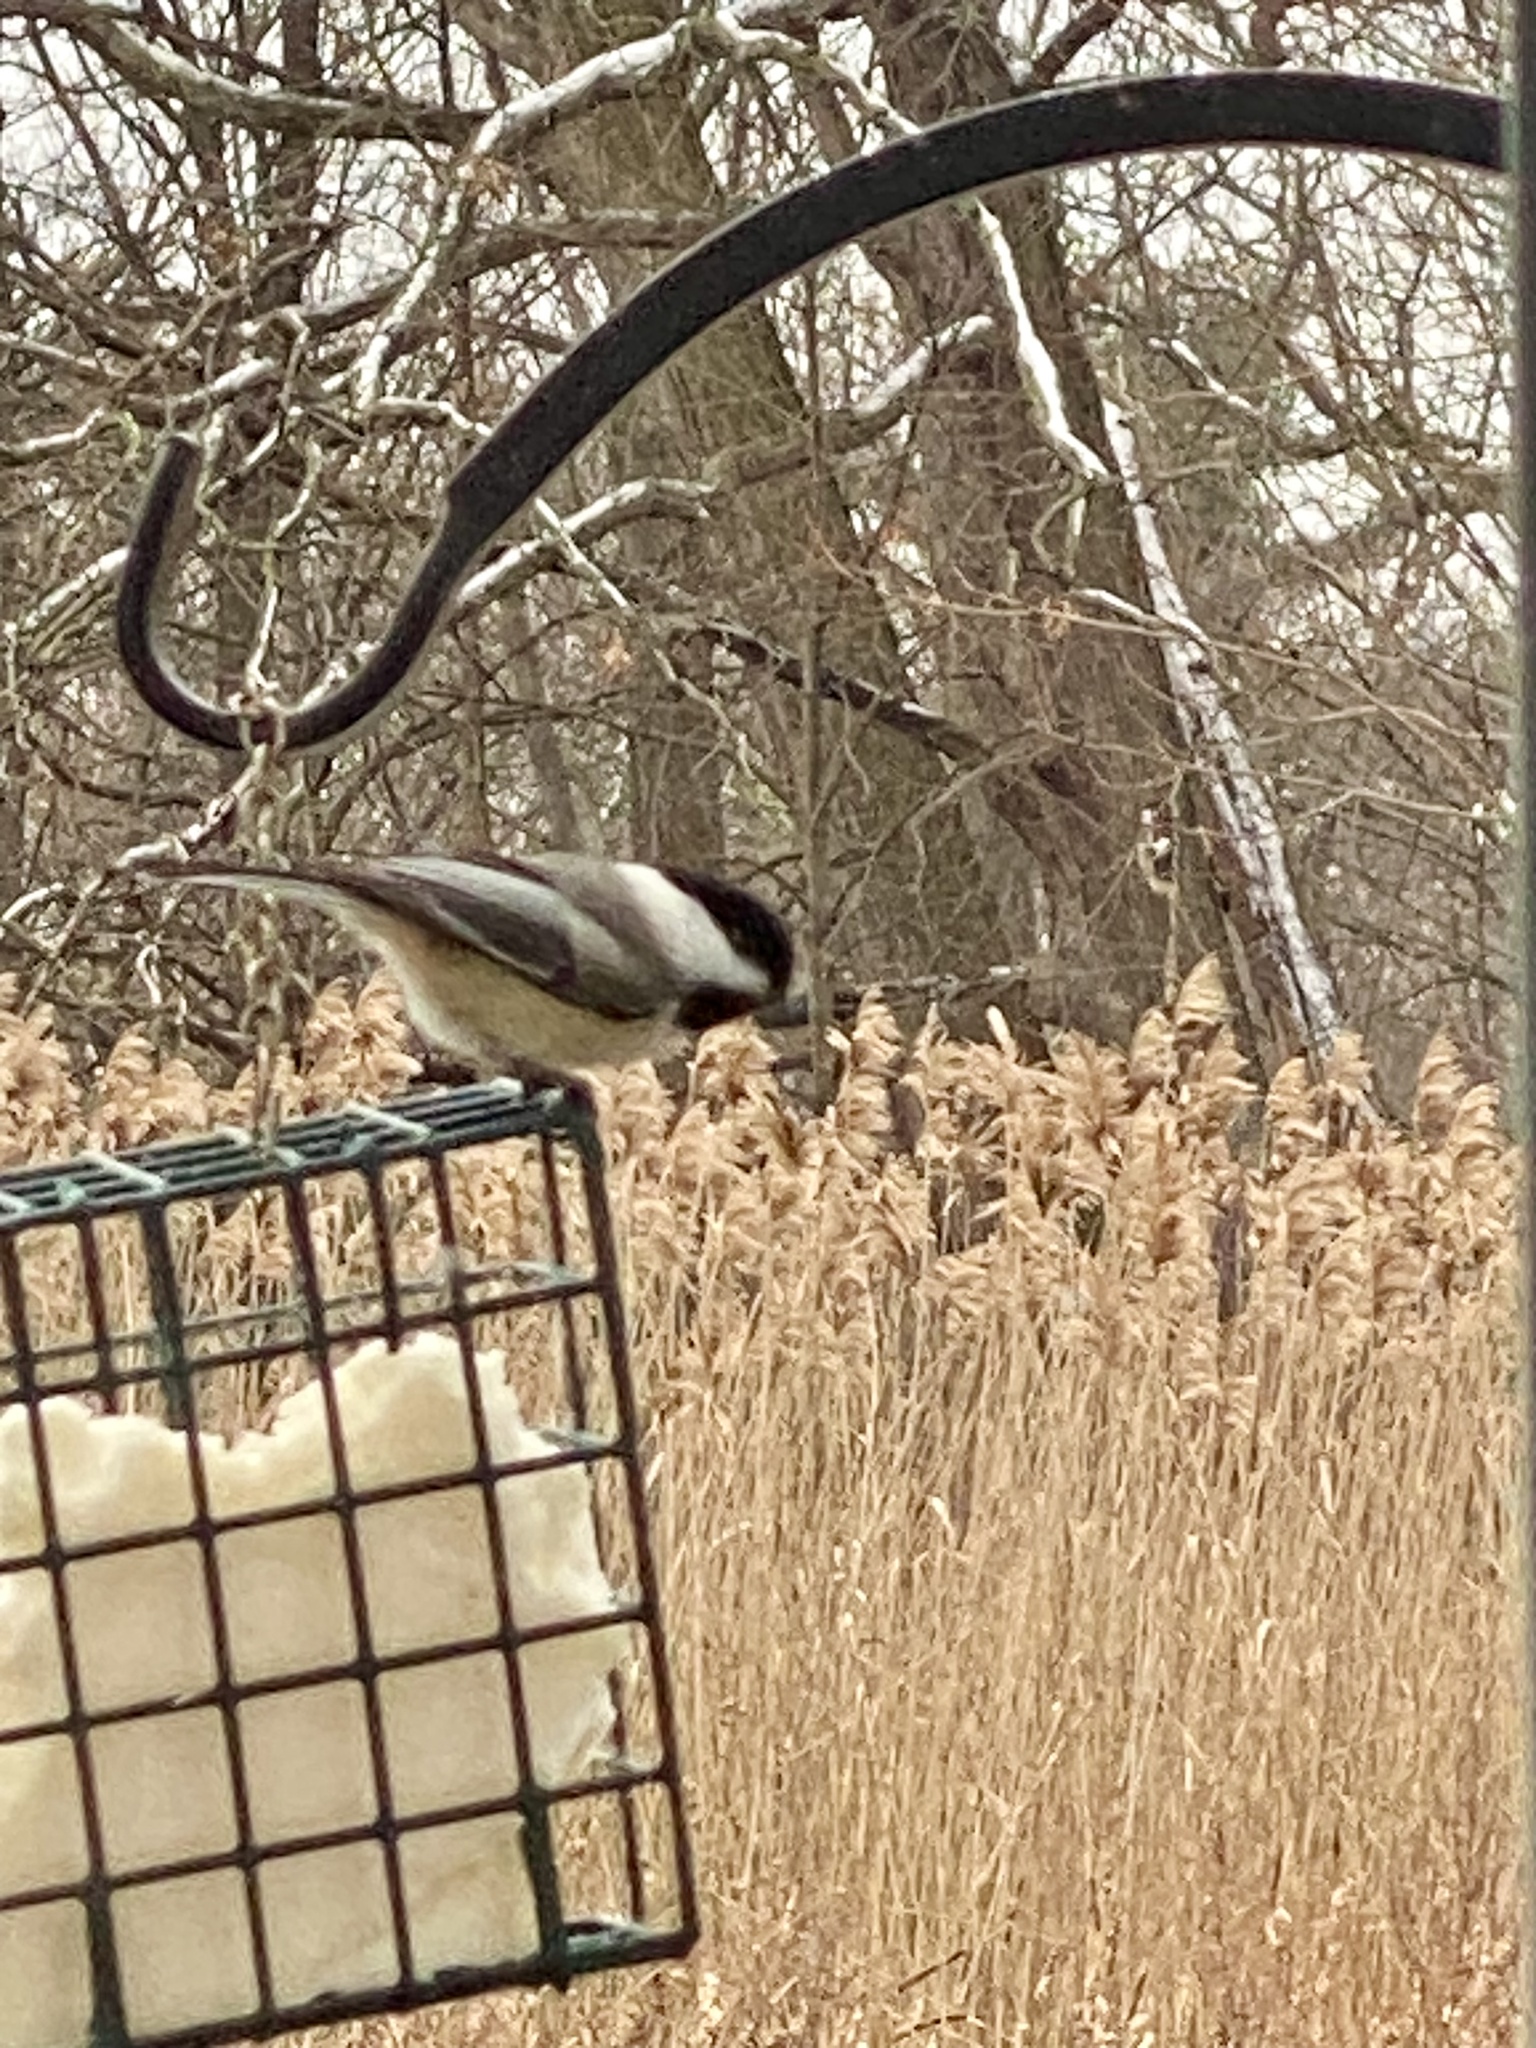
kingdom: Animalia
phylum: Chordata
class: Aves
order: Passeriformes
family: Paridae
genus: Poecile
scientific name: Poecile atricapillus
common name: Black-capped chickadee
